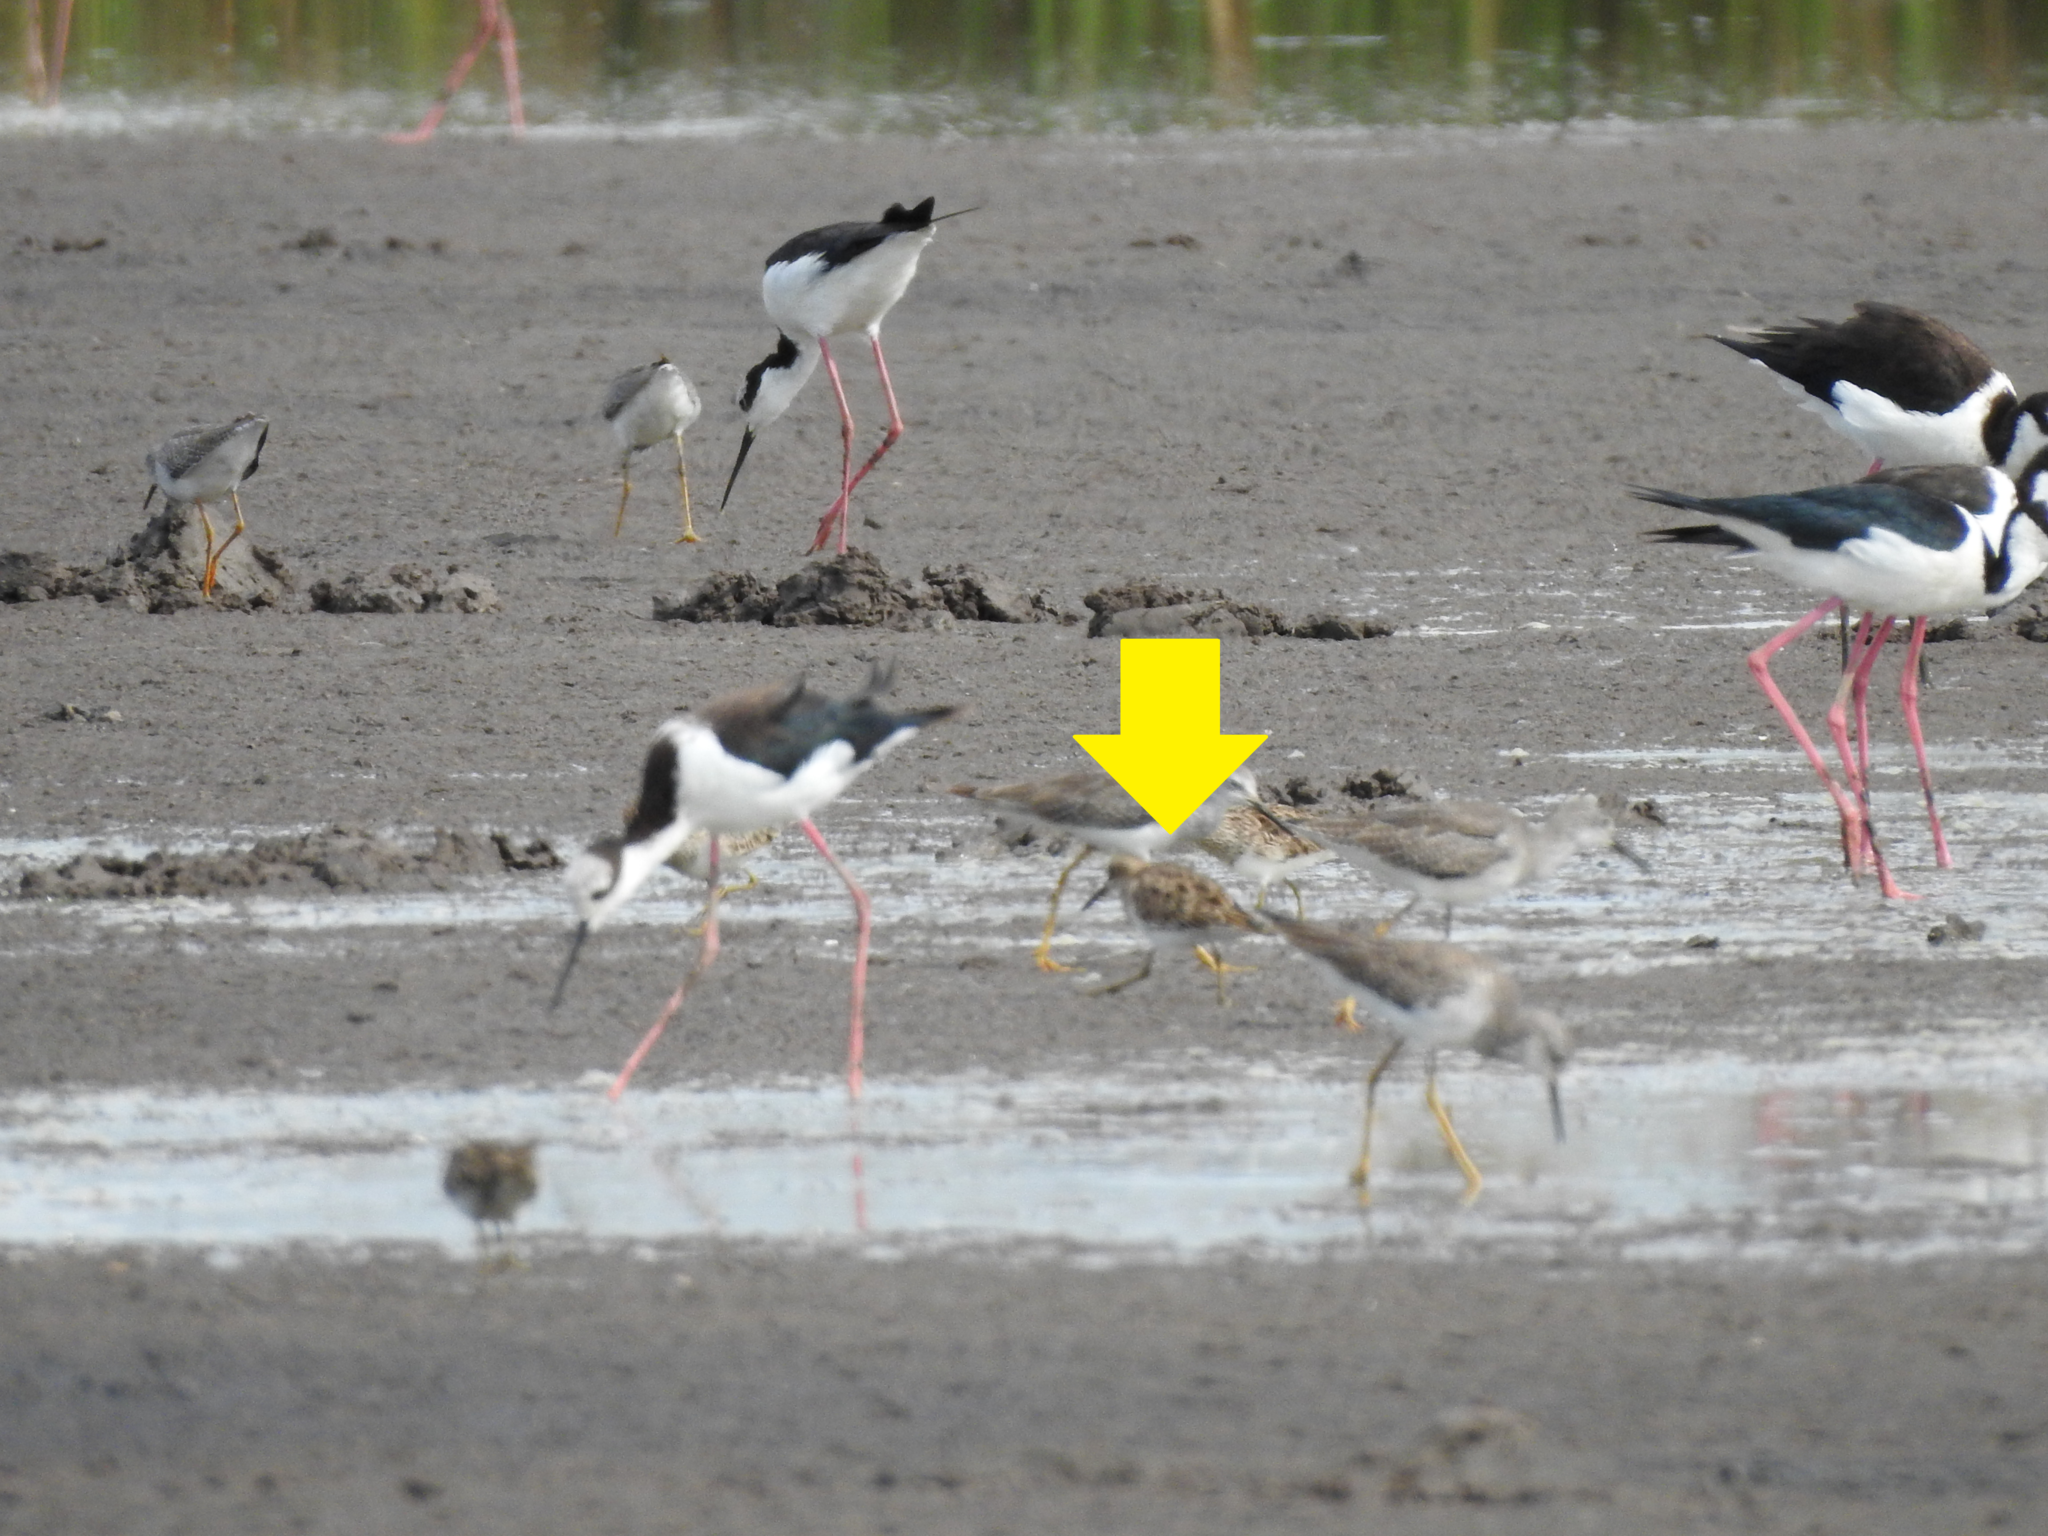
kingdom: Animalia
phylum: Chordata
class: Aves
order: Charadriiformes
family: Scolopacidae
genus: Calidris
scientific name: Calidris melanotos
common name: Pectoral sandpiper
